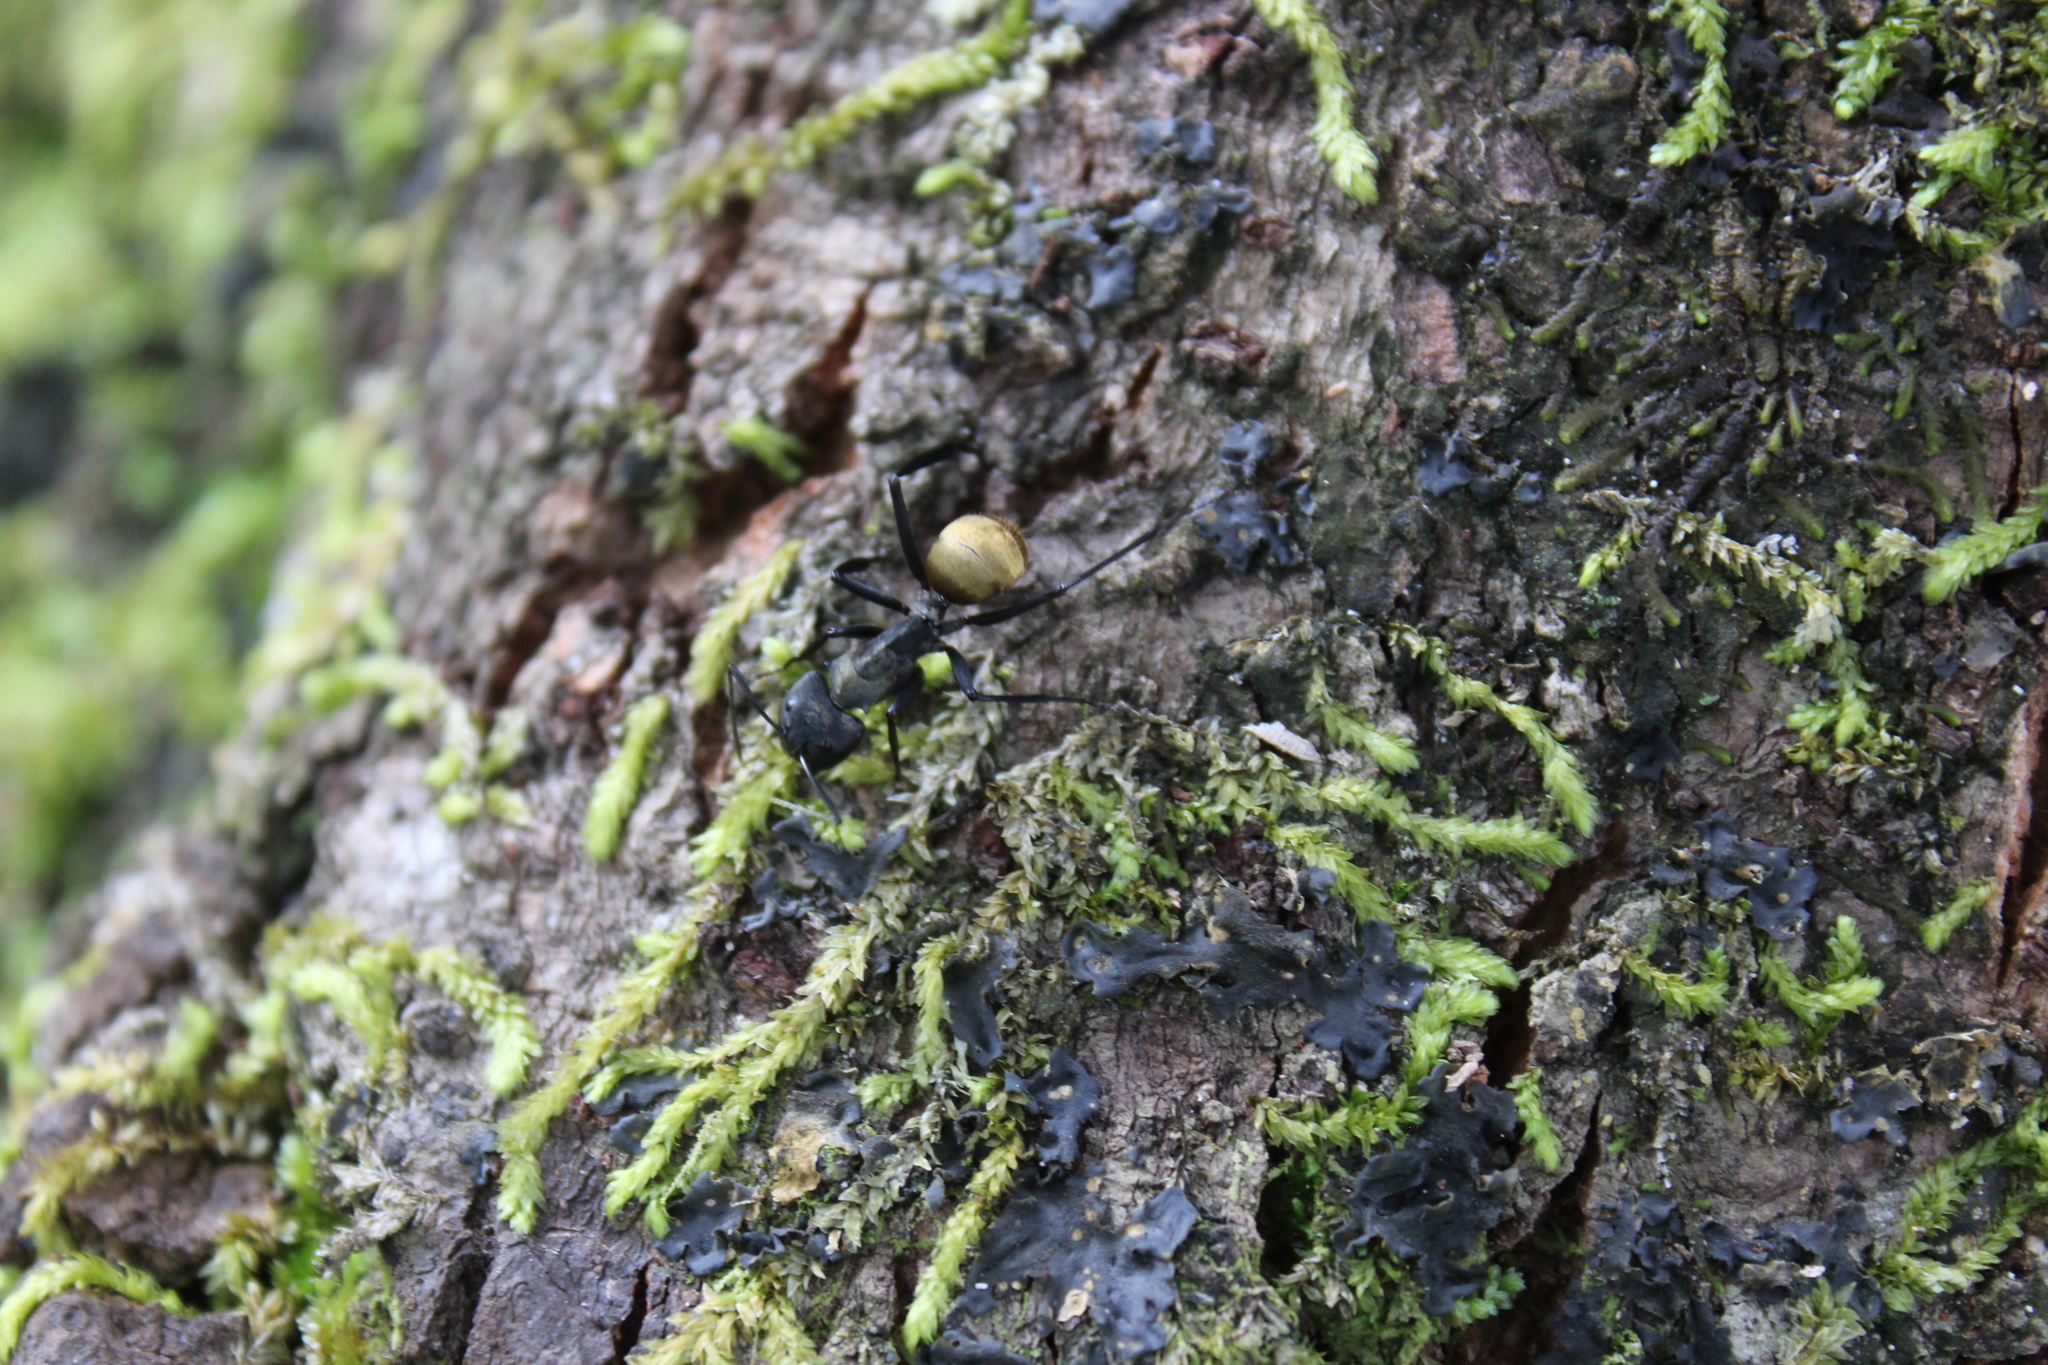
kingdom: Animalia
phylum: Arthropoda
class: Insecta
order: Hymenoptera
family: Formicidae
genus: Camponotus
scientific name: Camponotus sericeiventris
